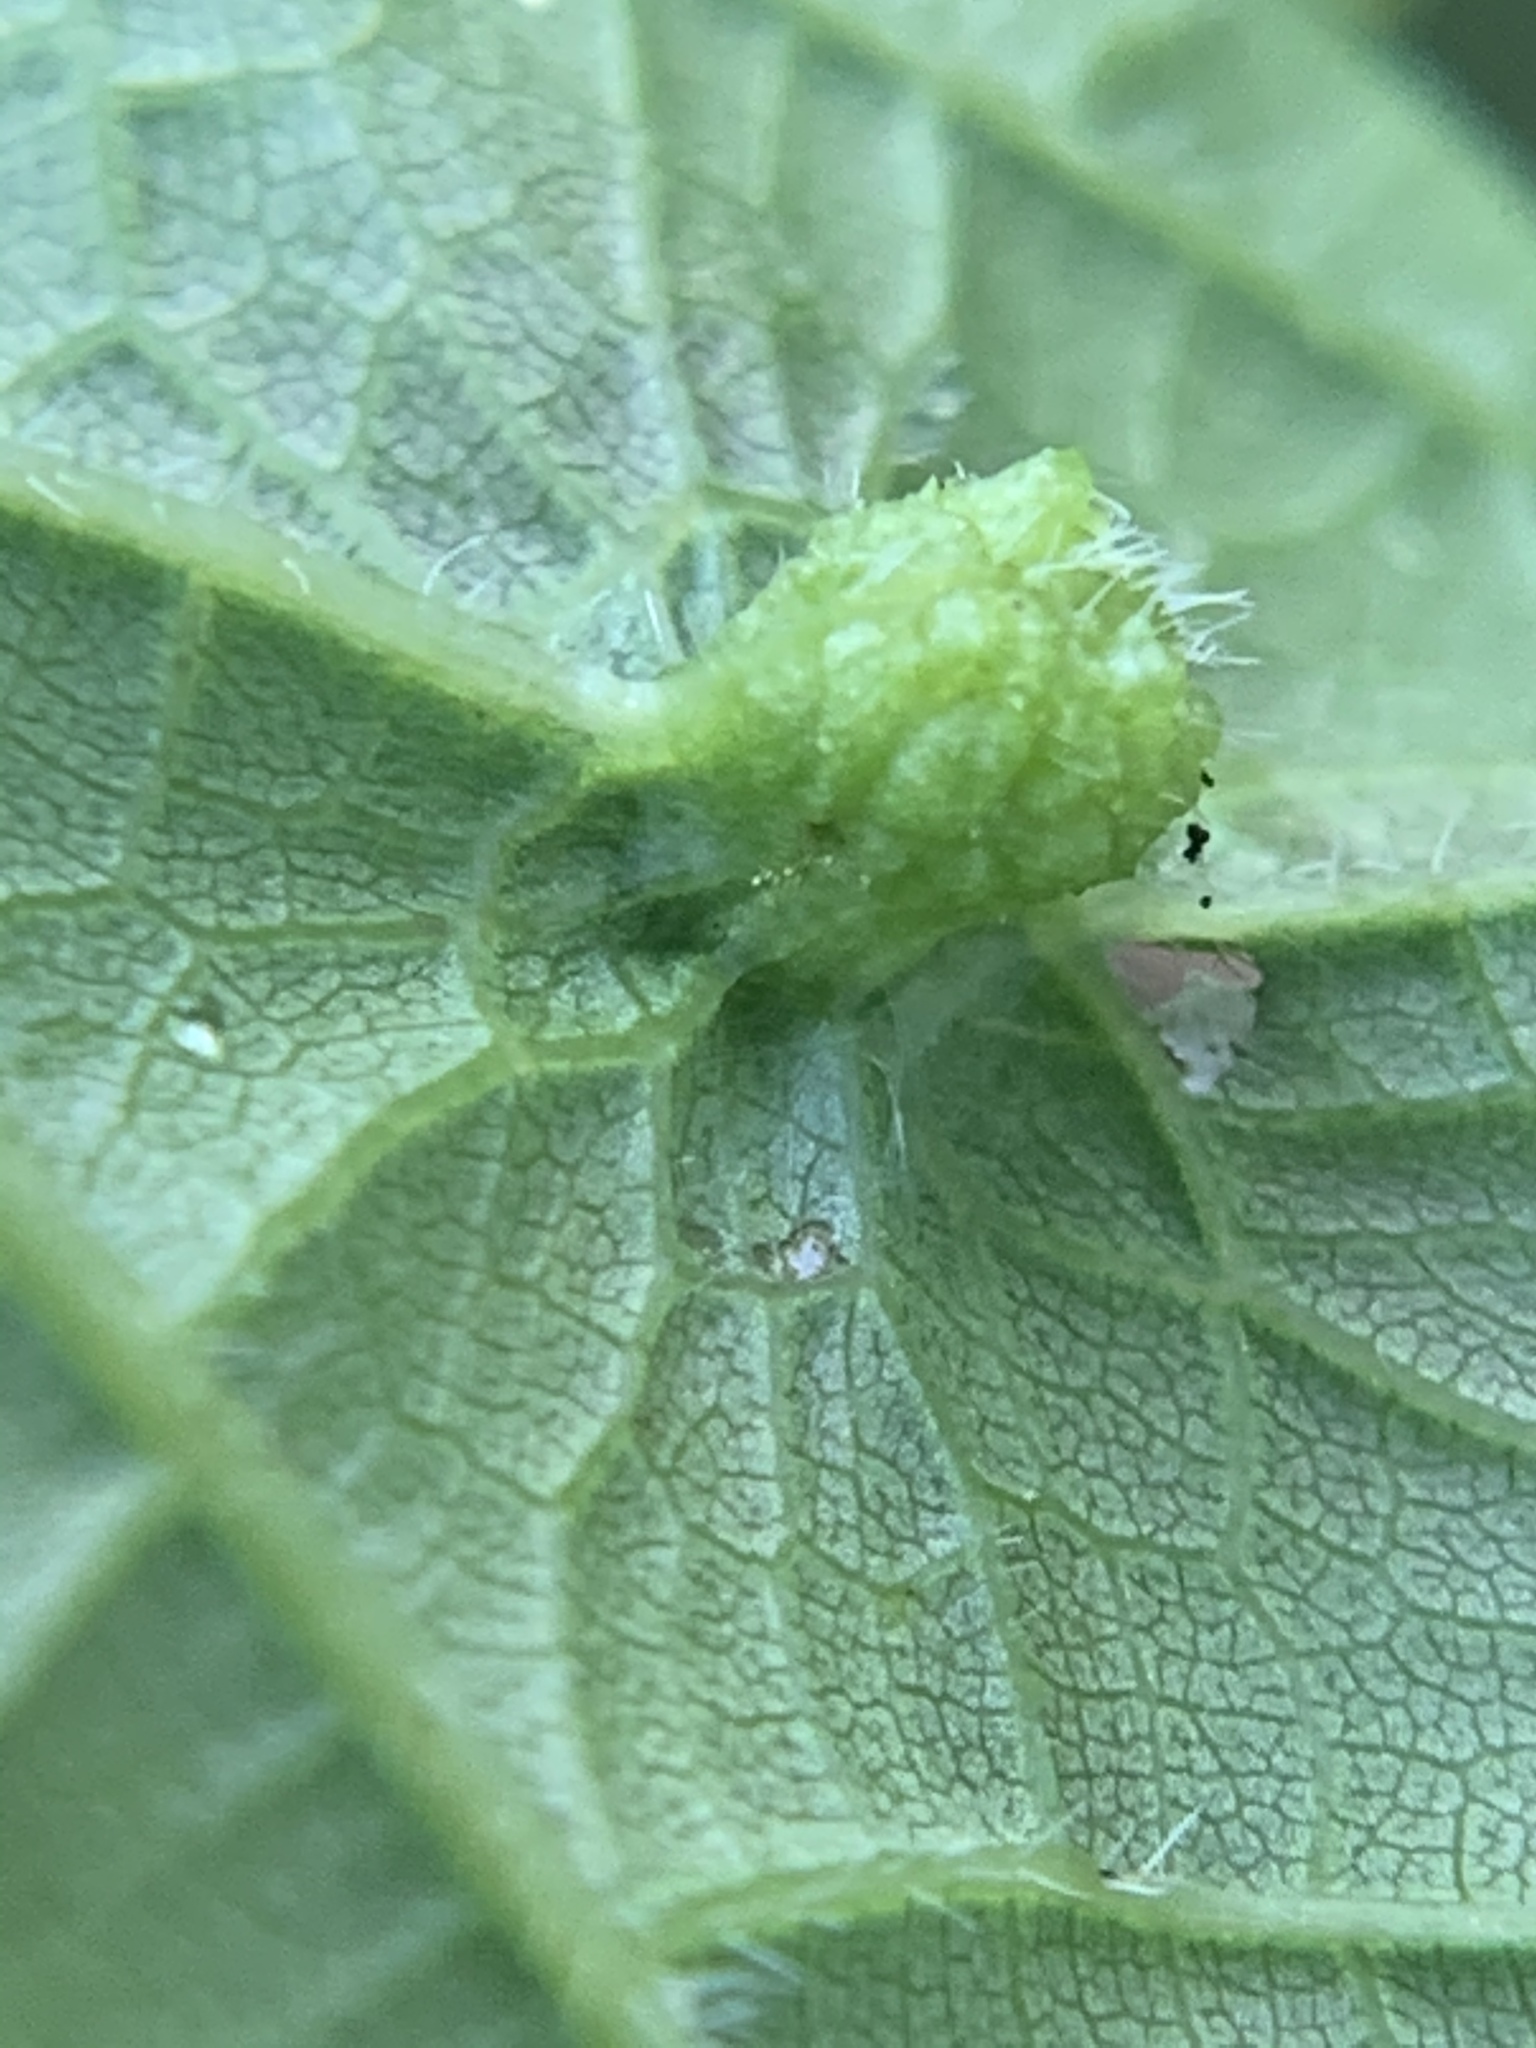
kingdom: Animalia
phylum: Arthropoda
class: Insecta
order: Hemiptera
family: Phylloxeridae
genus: Daktulosphaira
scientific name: Daktulosphaira vitifoliae
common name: Grape phylloxera
